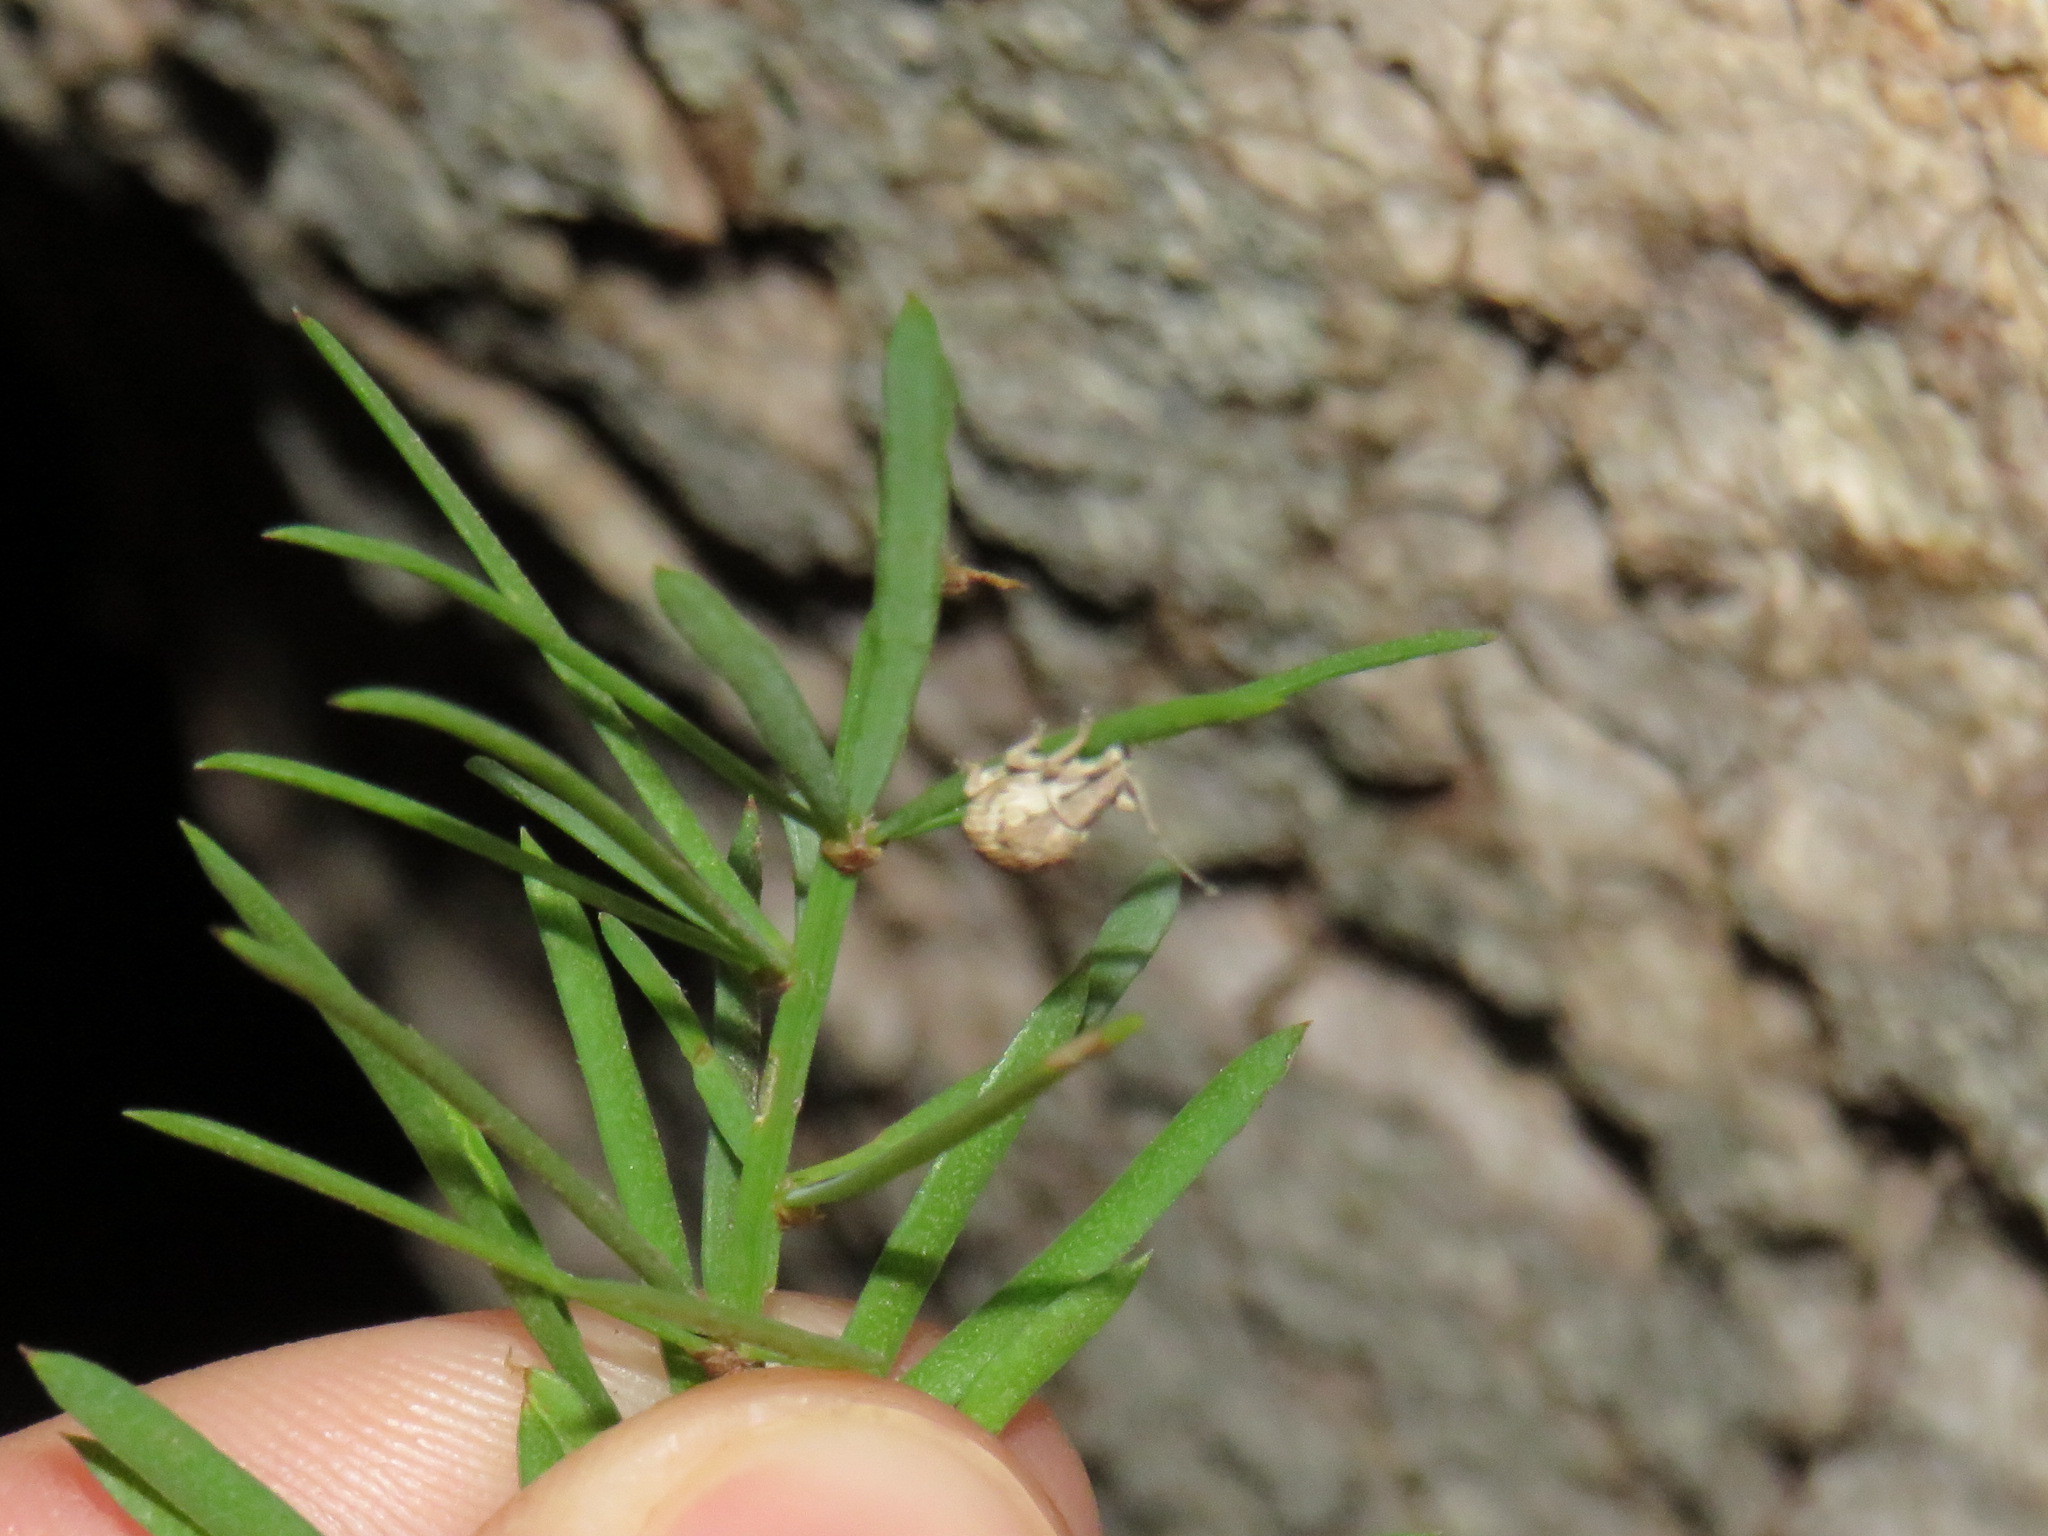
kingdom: Animalia
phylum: Arthropoda
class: Insecta
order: Coleoptera
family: Curculionidae
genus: Ellimenistes
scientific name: Ellimenistes laesicollis
